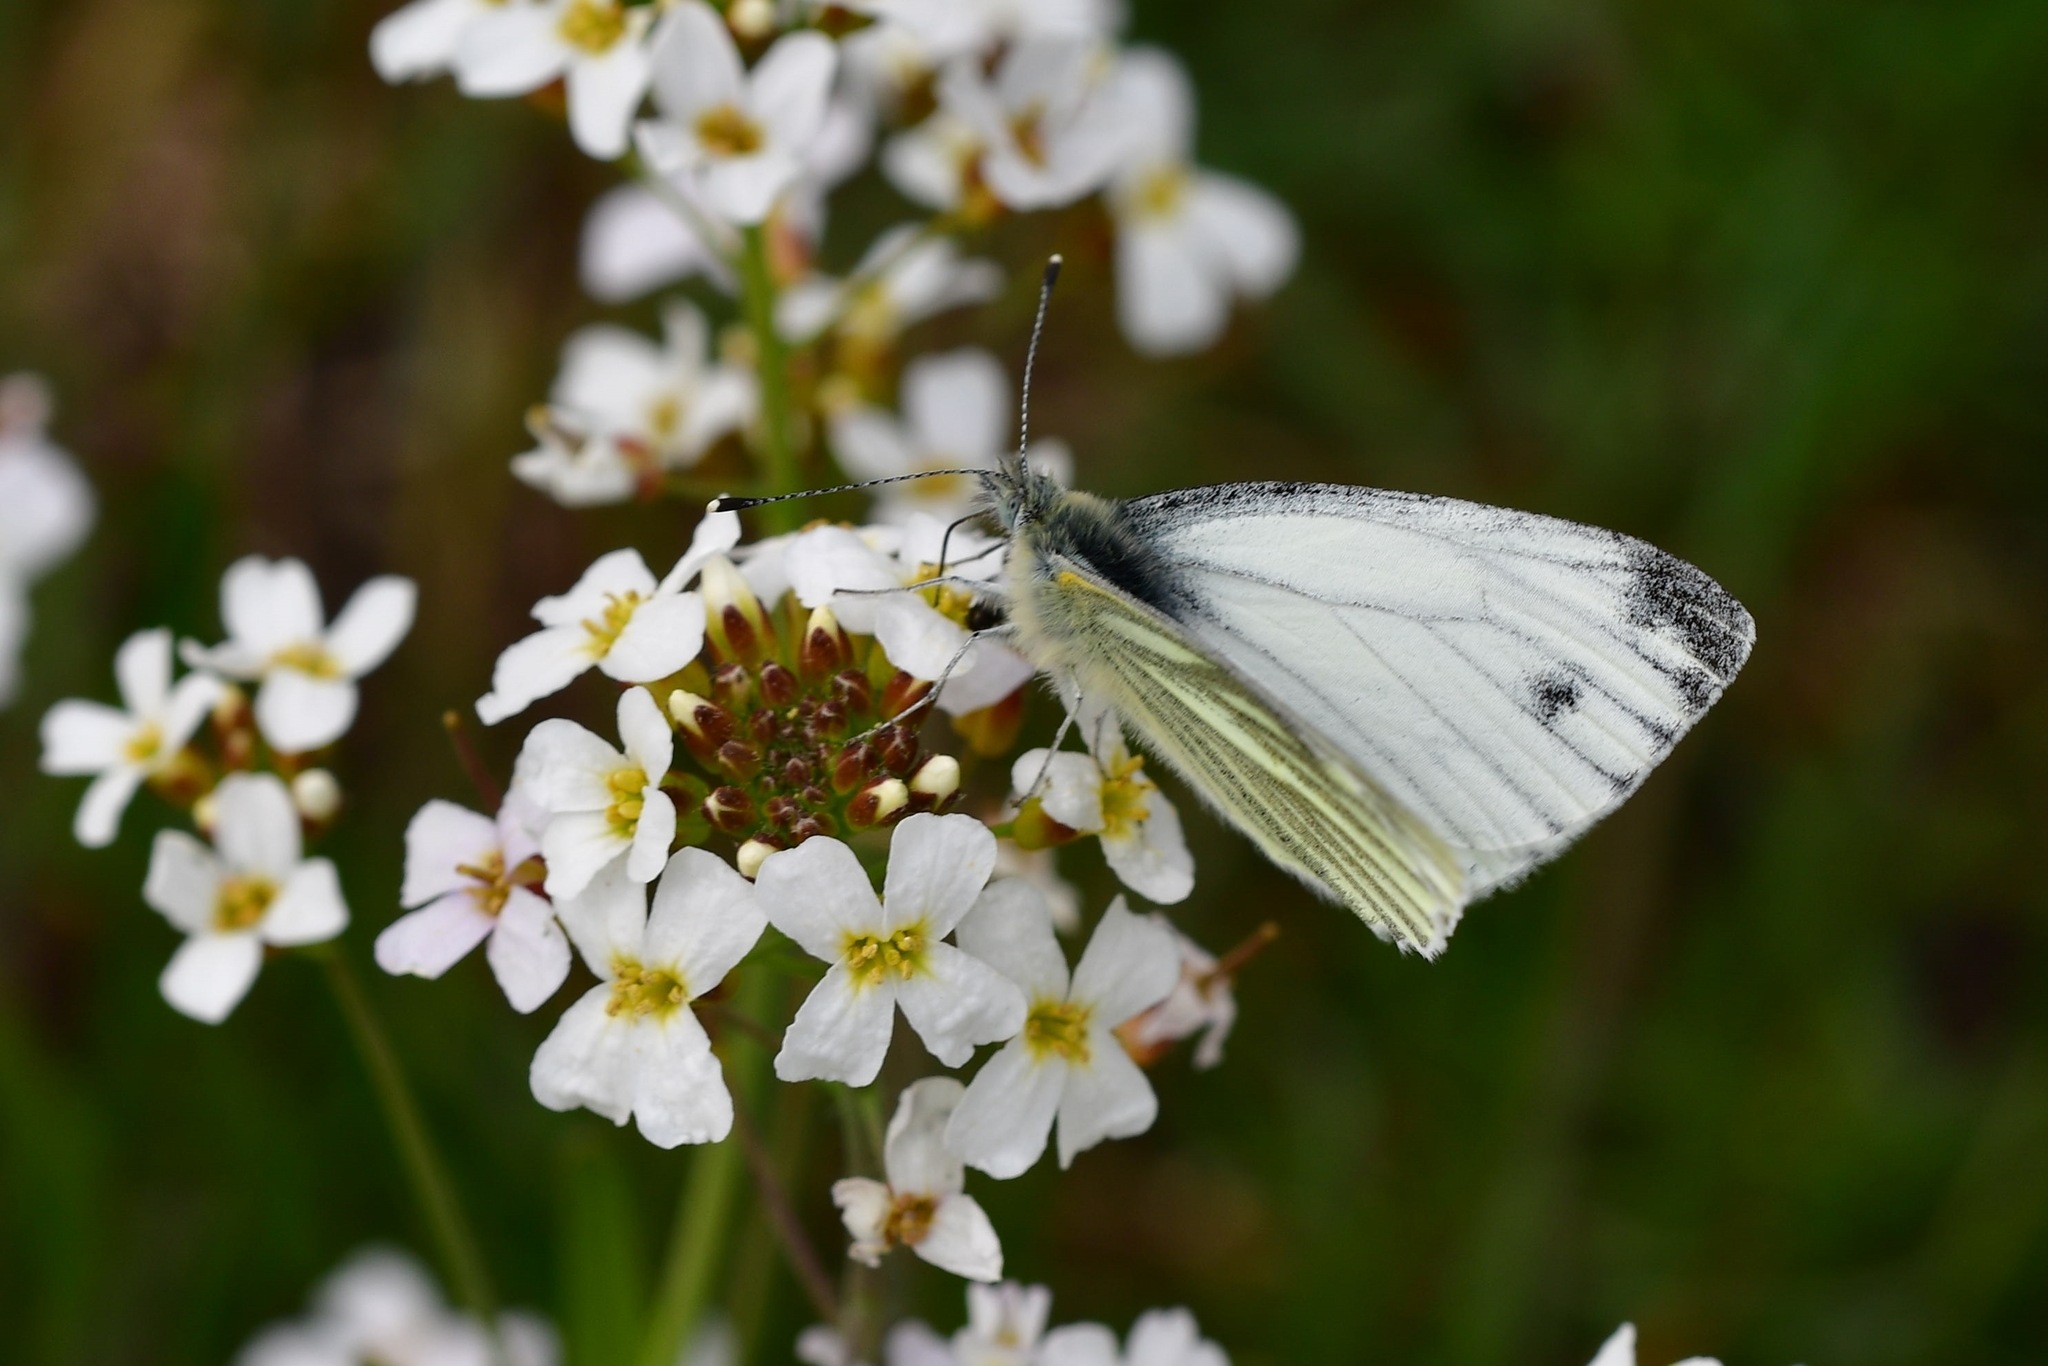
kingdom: Animalia
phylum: Arthropoda
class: Insecta
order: Lepidoptera
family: Pieridae
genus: Pieris
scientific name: Pieris napi
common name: Green-veined white
